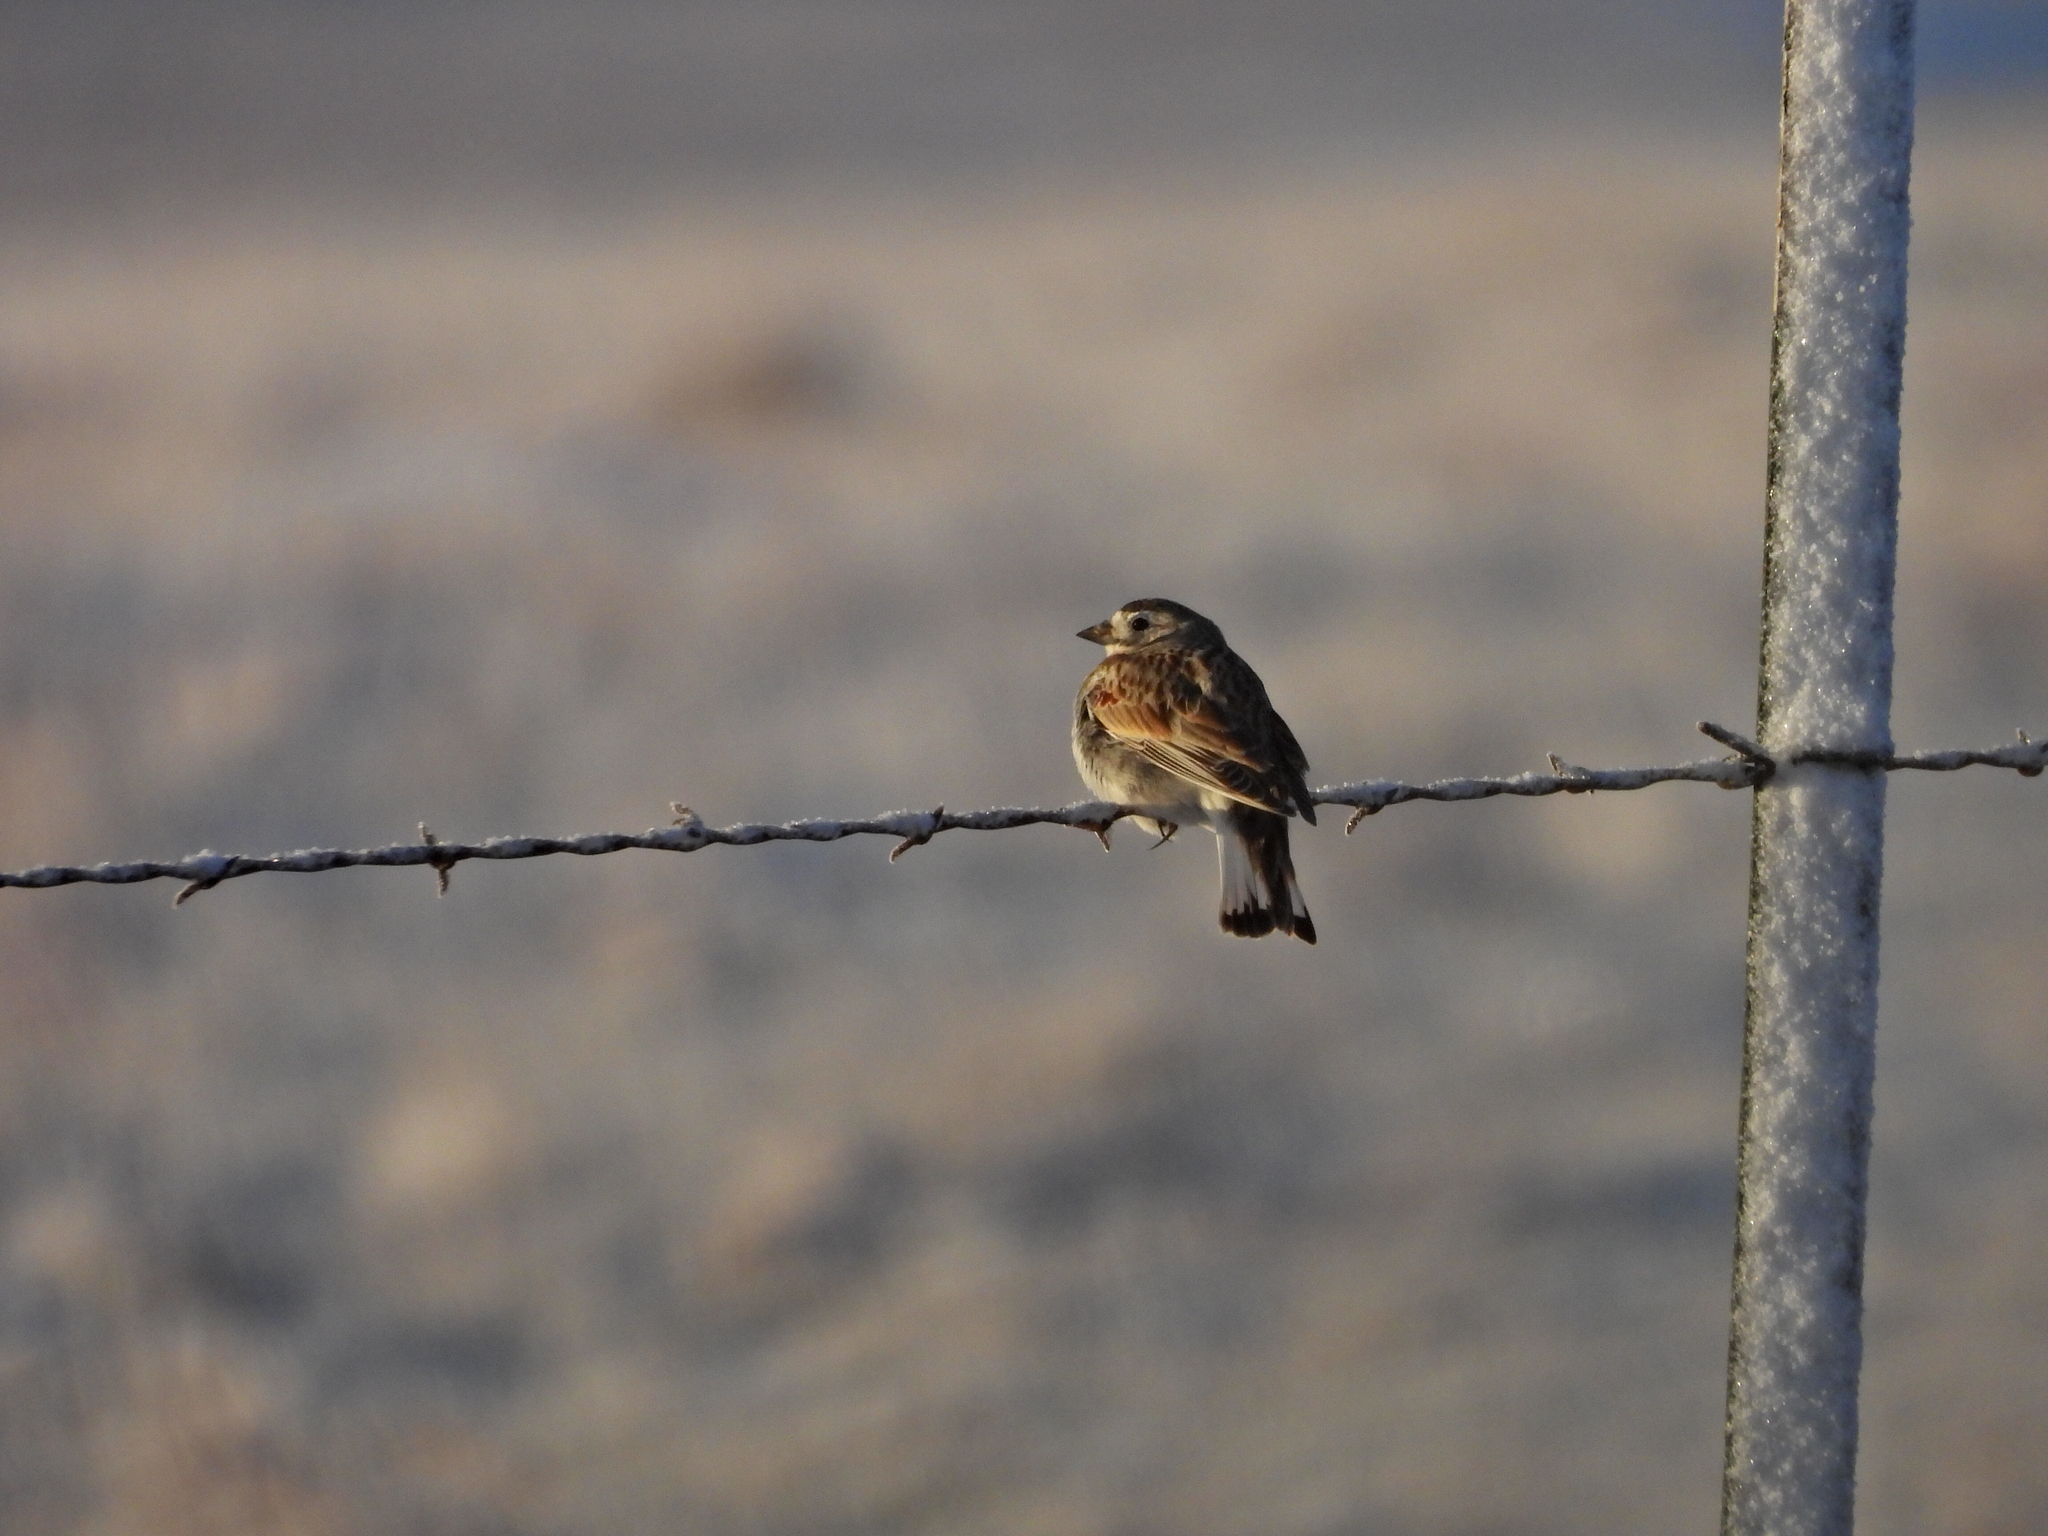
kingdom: Animalia
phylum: Chordata
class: Aves
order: Passeriformes
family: Calcariidae
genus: Rhynchophanes
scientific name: Rhynchophanes mccownii
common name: Mccown's longspur
